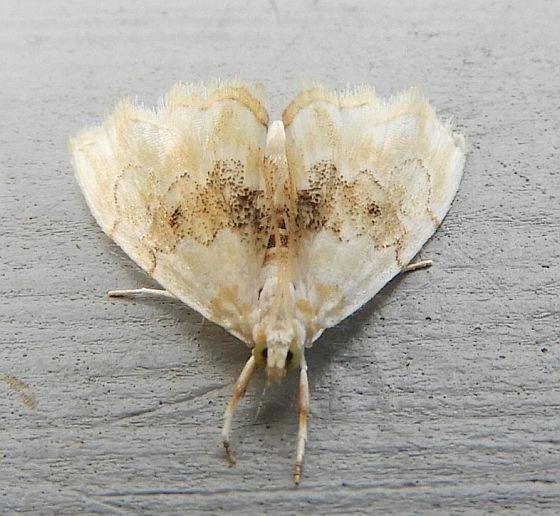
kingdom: Animalia
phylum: Arthropoda
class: Insecta
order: Lepidoptera
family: Crambidae
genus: Lipocosma
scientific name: Lipocosma sicalis
